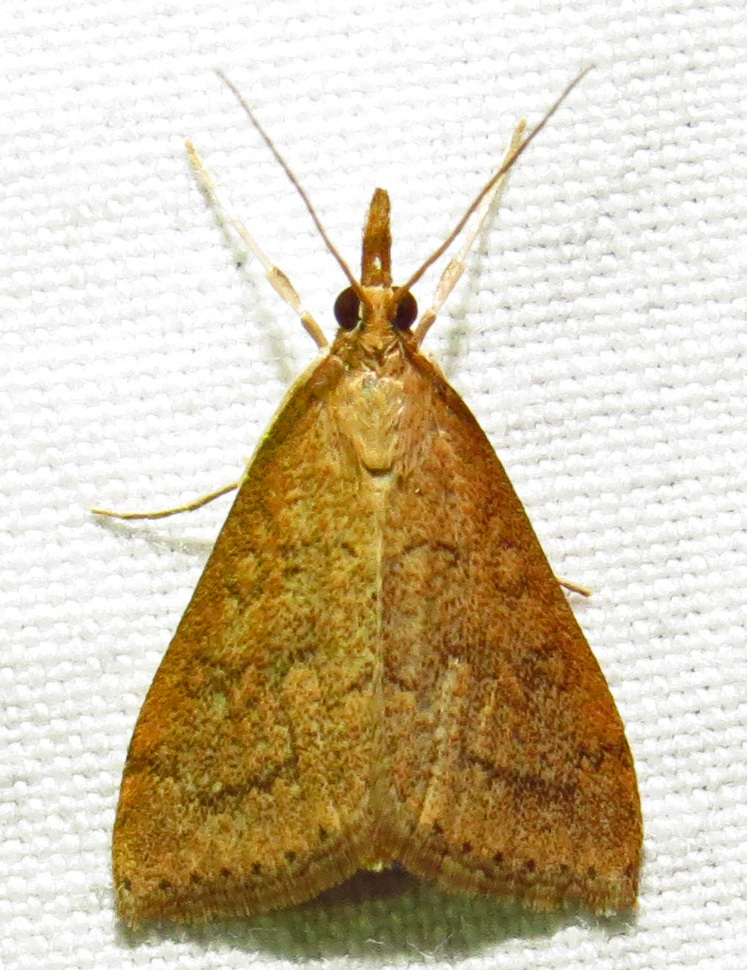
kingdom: Animalia
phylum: Arthropoda
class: Insecta
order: Lepidoptera
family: Crambidae
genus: Udea
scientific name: Udea rubigalis
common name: Celery leaftier moth
